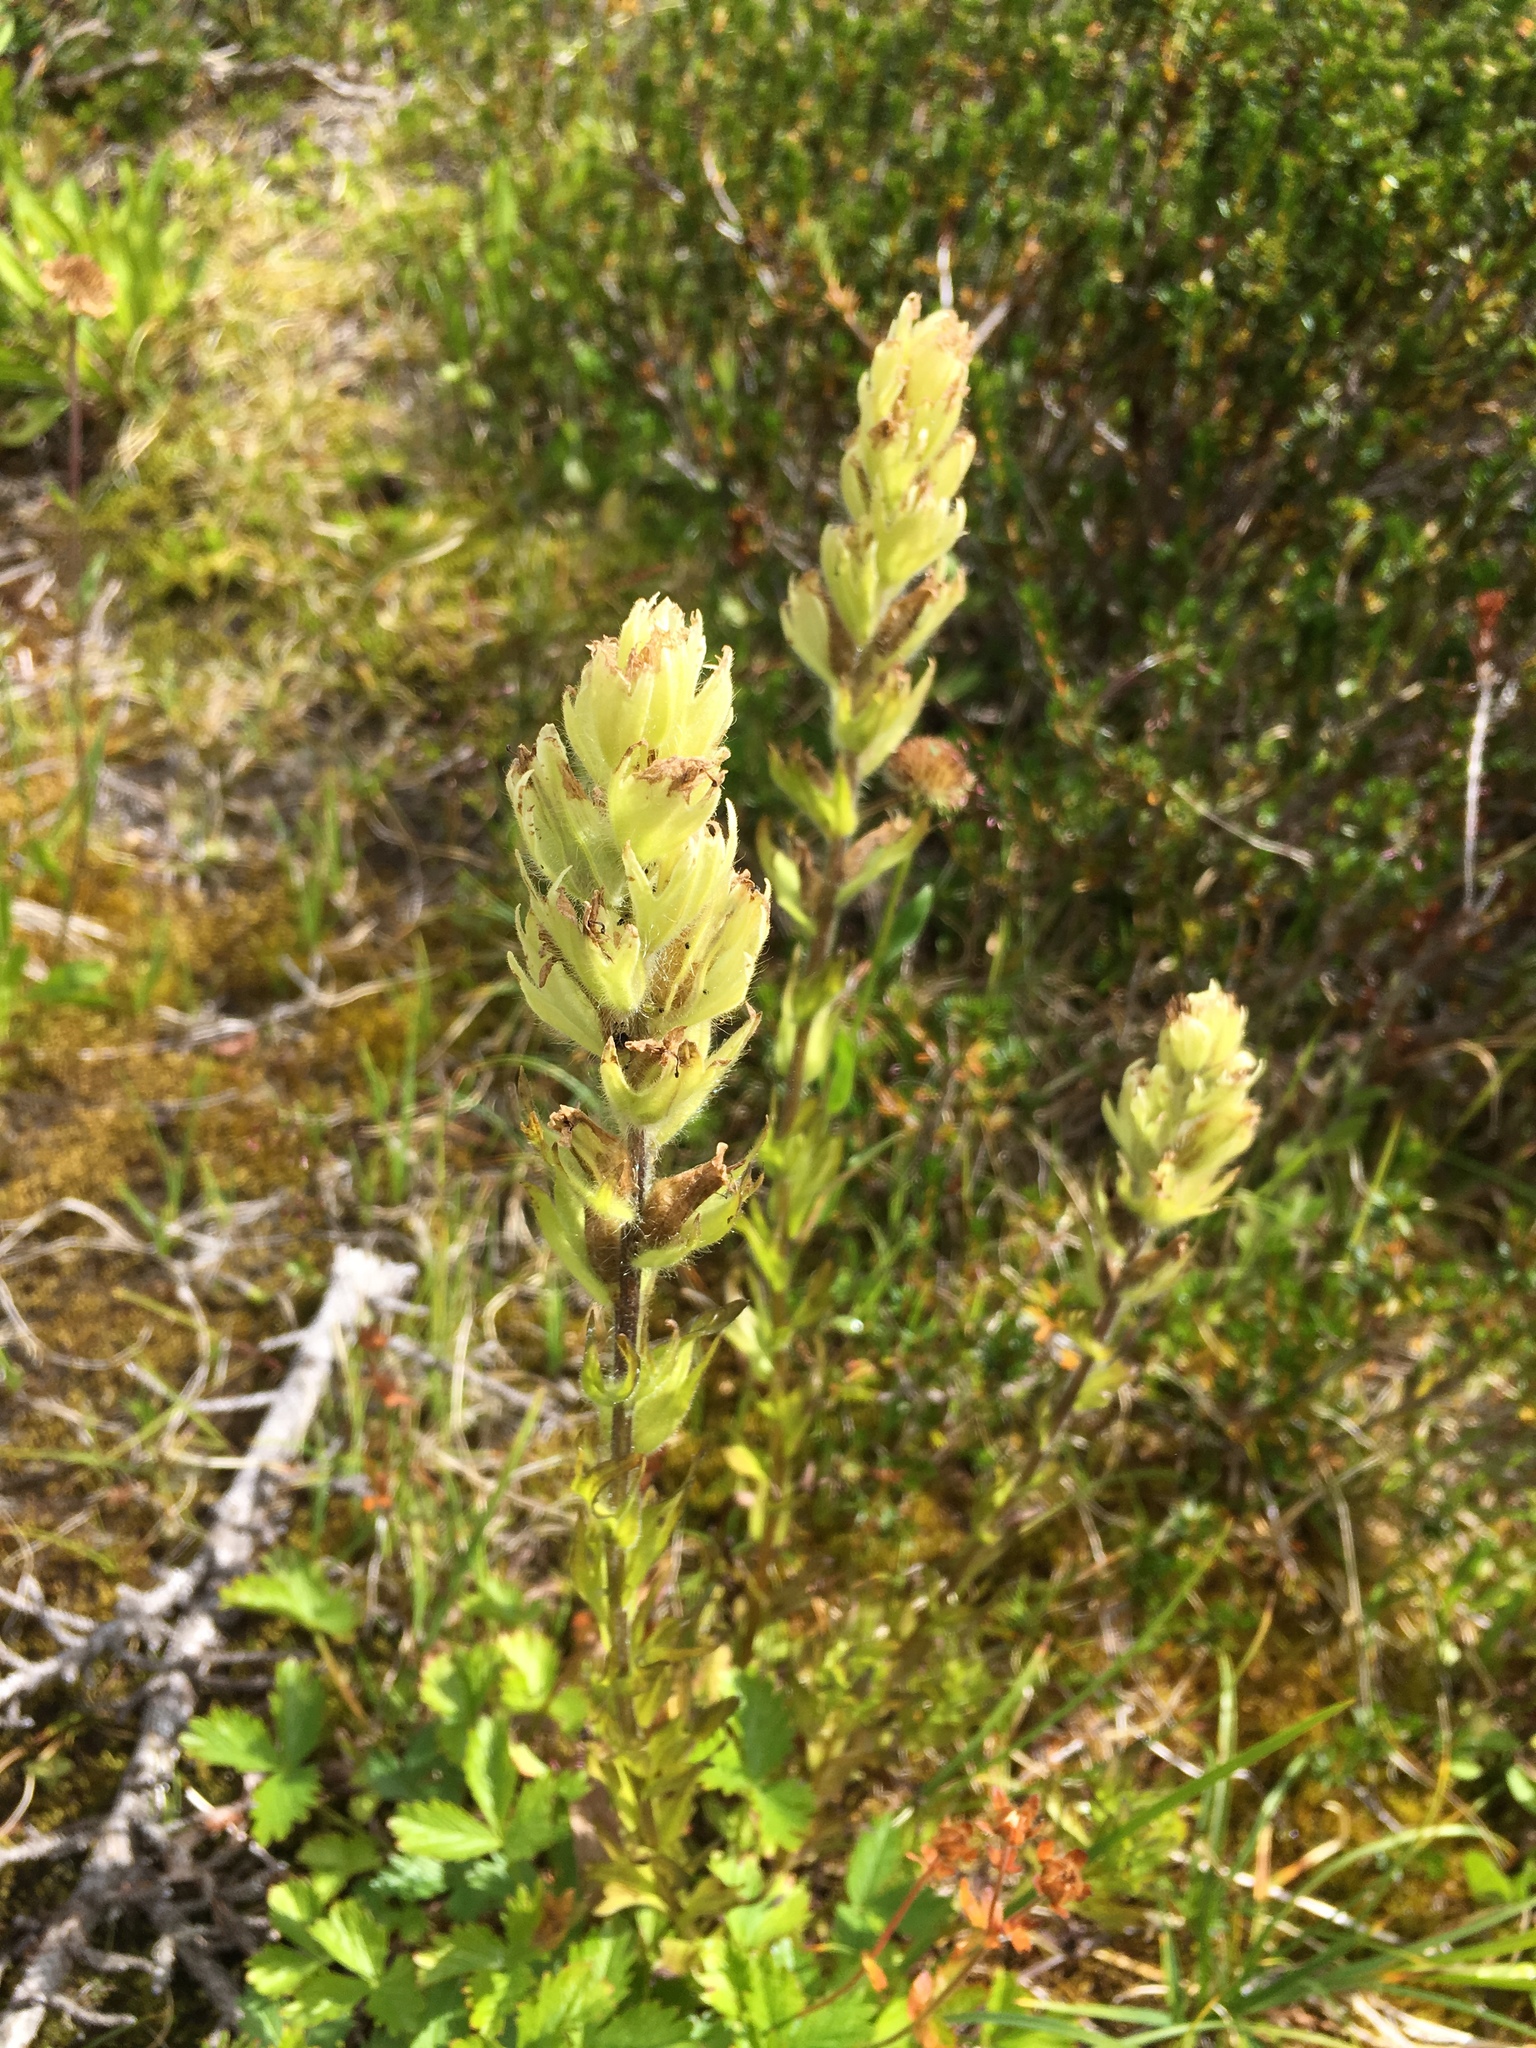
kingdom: Plantae
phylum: Tracheophyta
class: Magnoliopsida
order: Lamiales
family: Orobanchaceae
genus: Castilleja
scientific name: Castilleja parviflora
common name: Mountain paintbrush
